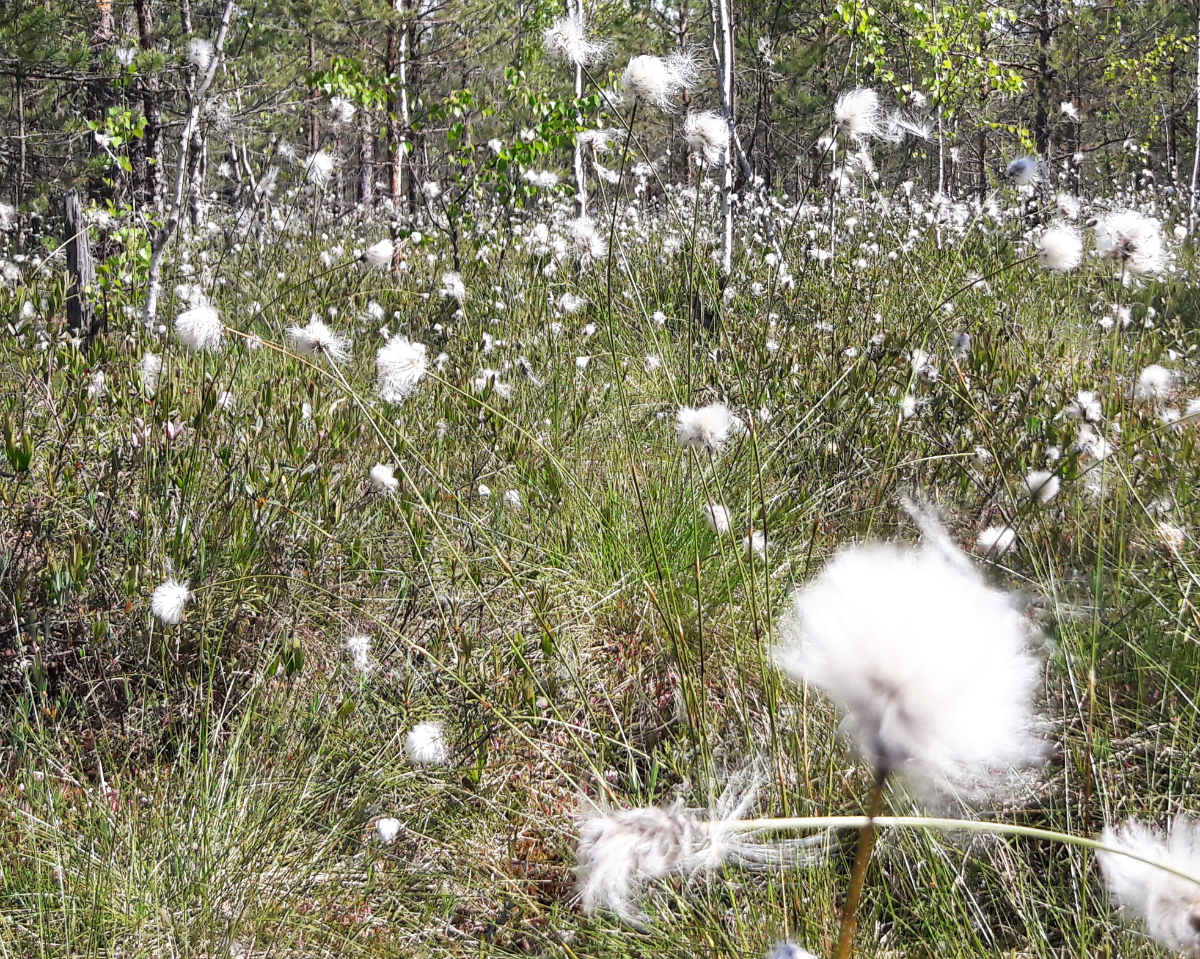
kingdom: Plantae
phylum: Tracheophyta
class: Liliopsida
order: Poales
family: Cyperaceae
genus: Eriophorum
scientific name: Eriophorum vaginatum
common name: Hare's-tail cottongrass
